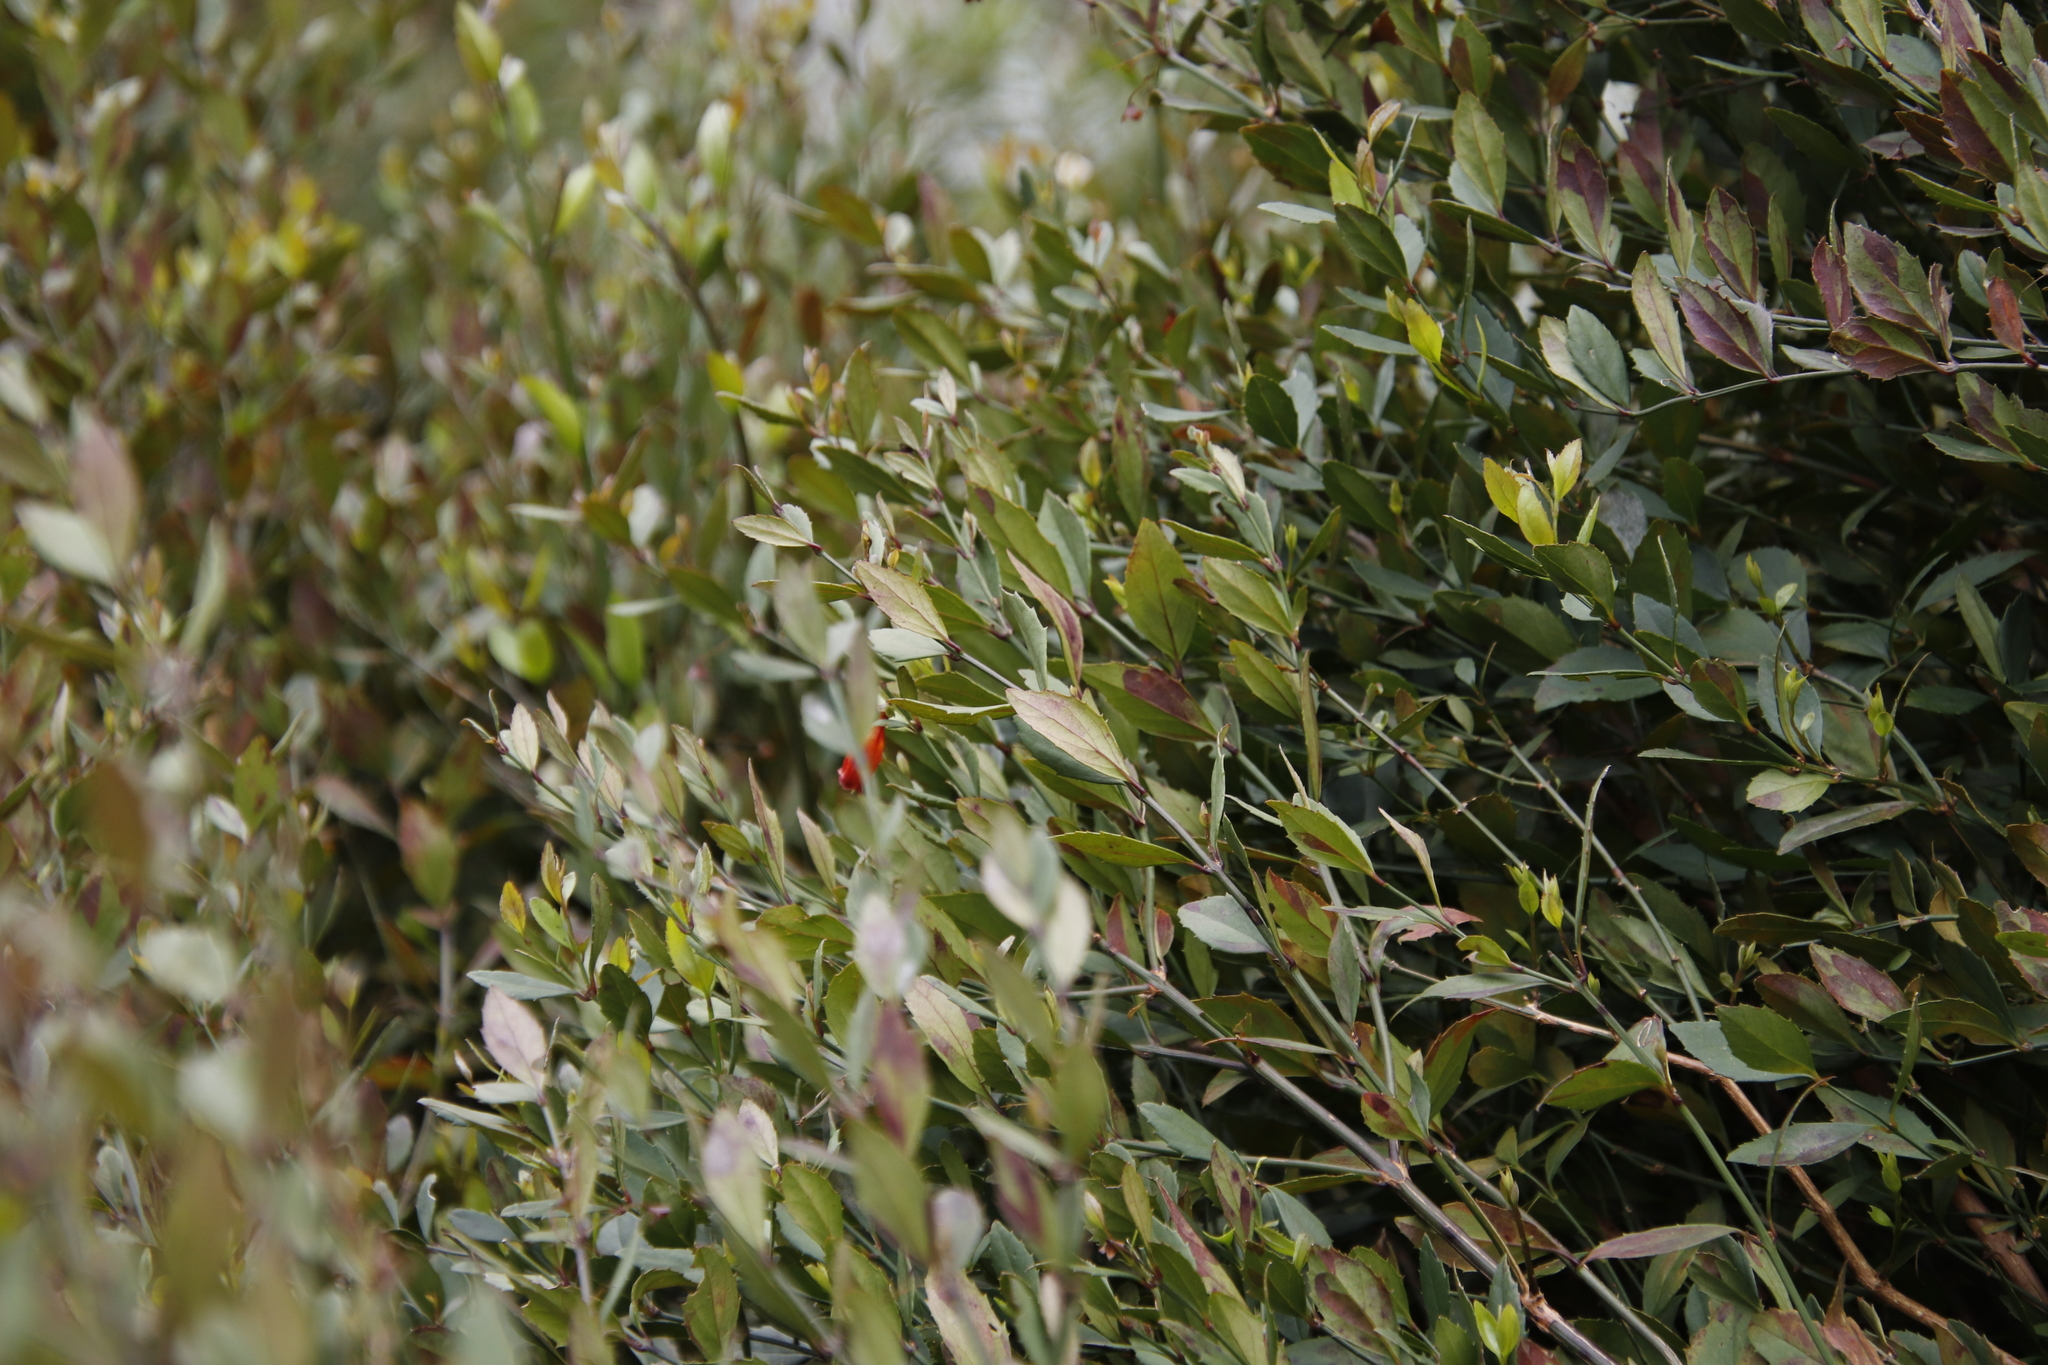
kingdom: Plantae
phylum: Tracheophyta
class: Magnoliopsida
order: Lamiales
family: Stilbaceae
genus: Halleria
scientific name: Halleria elliptica
